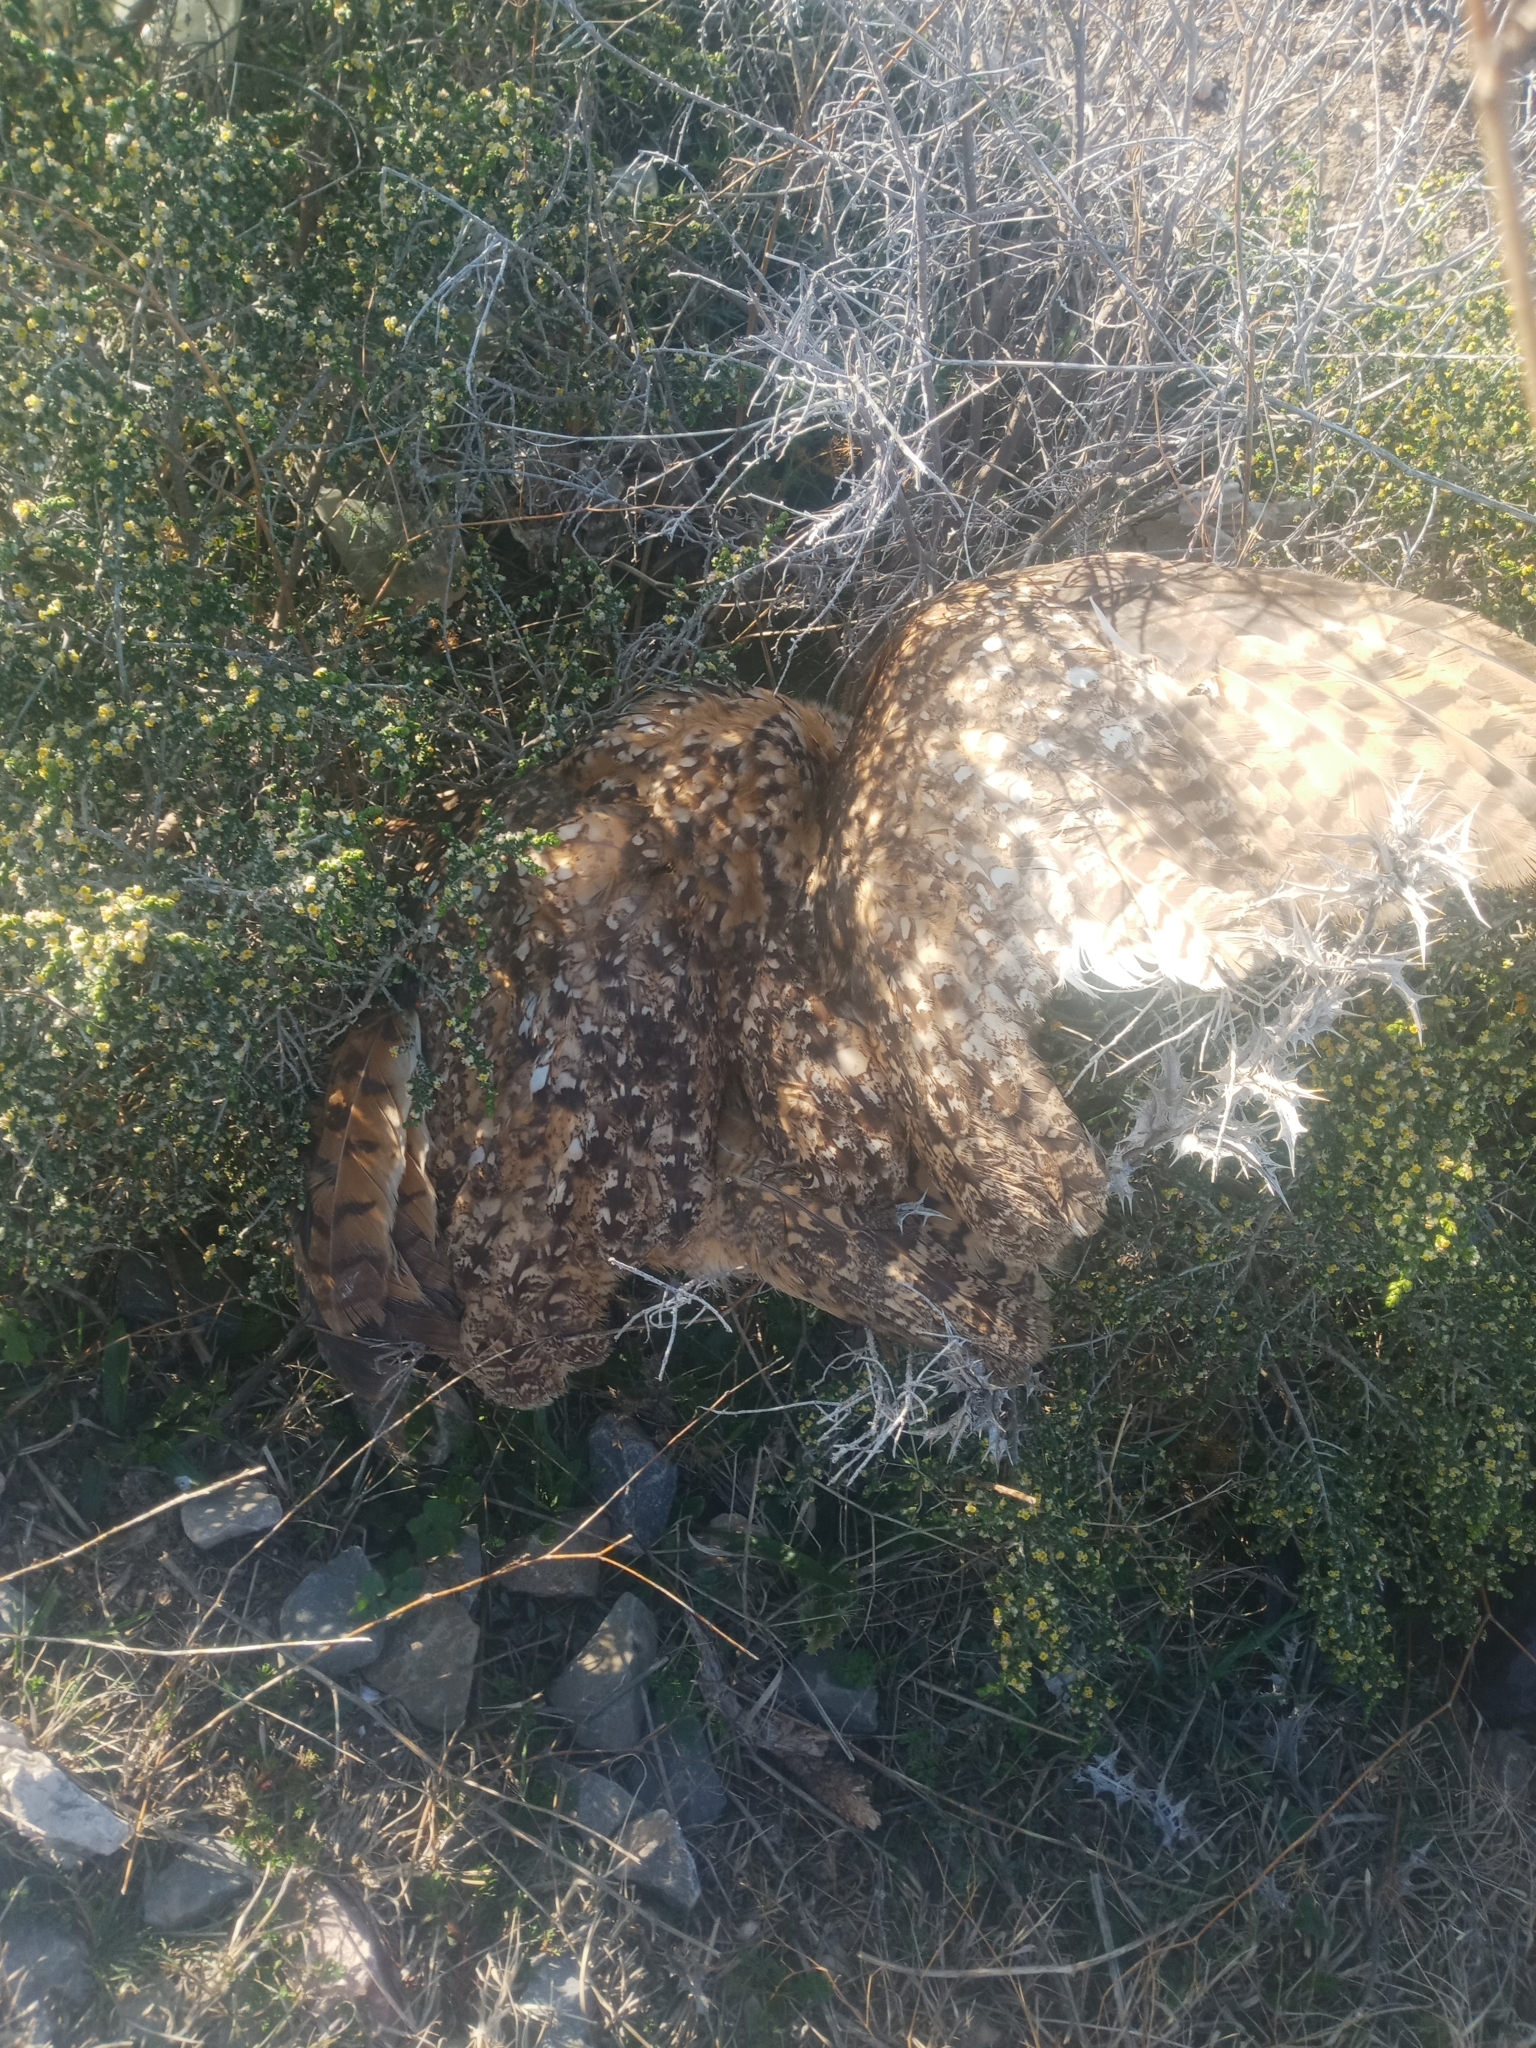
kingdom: Animalia
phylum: Chordata
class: Aves
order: Strigiformes
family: Strigidae
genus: Bubo
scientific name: Bubo ascalaphus
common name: Pharaoh eagle-owl
